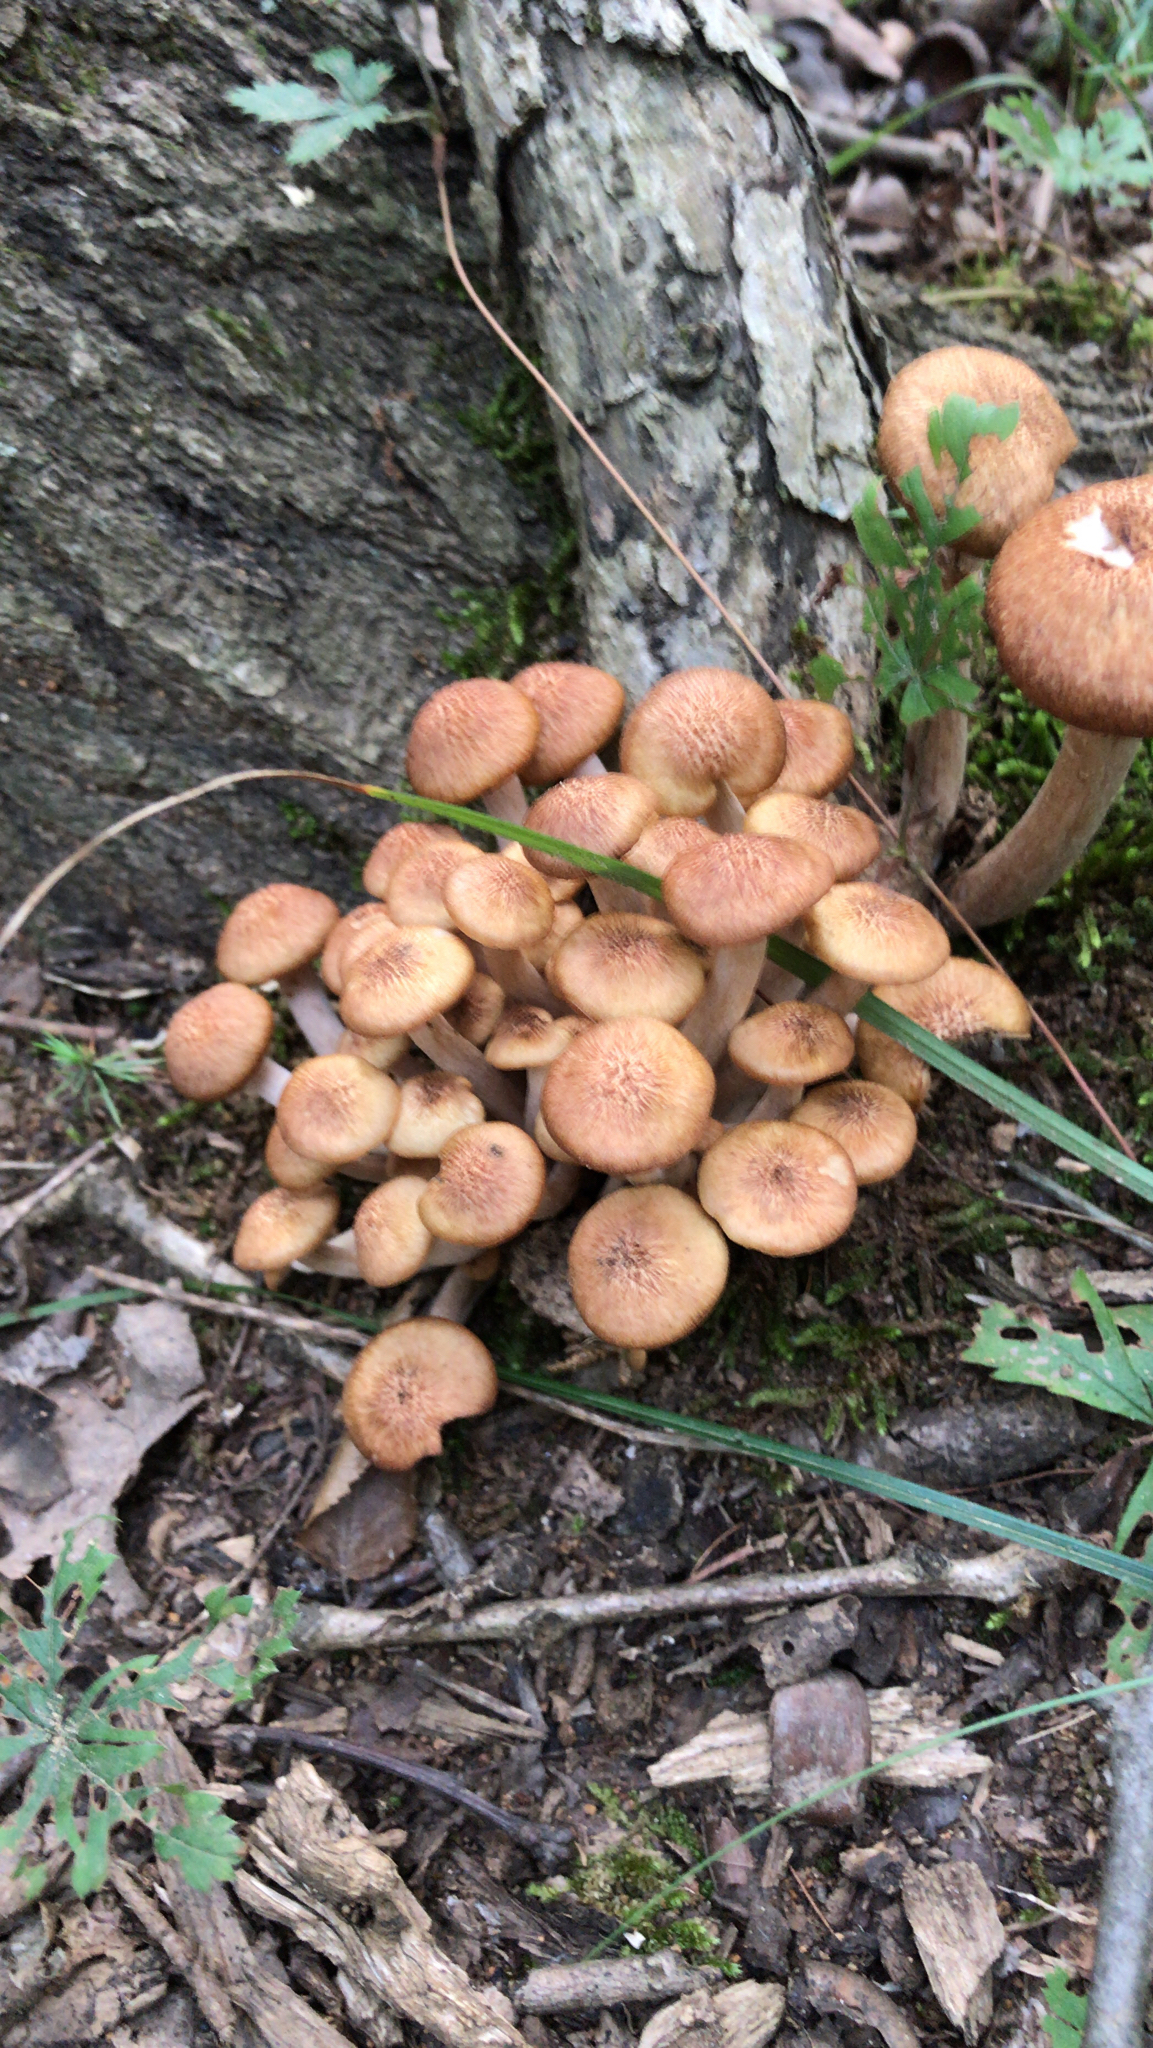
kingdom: Fungi
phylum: Basidiomycota
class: Agaricomycetes
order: Agaricales
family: Physalacriaceae
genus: Desarmillaria
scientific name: Desarmillaria caespitosa
